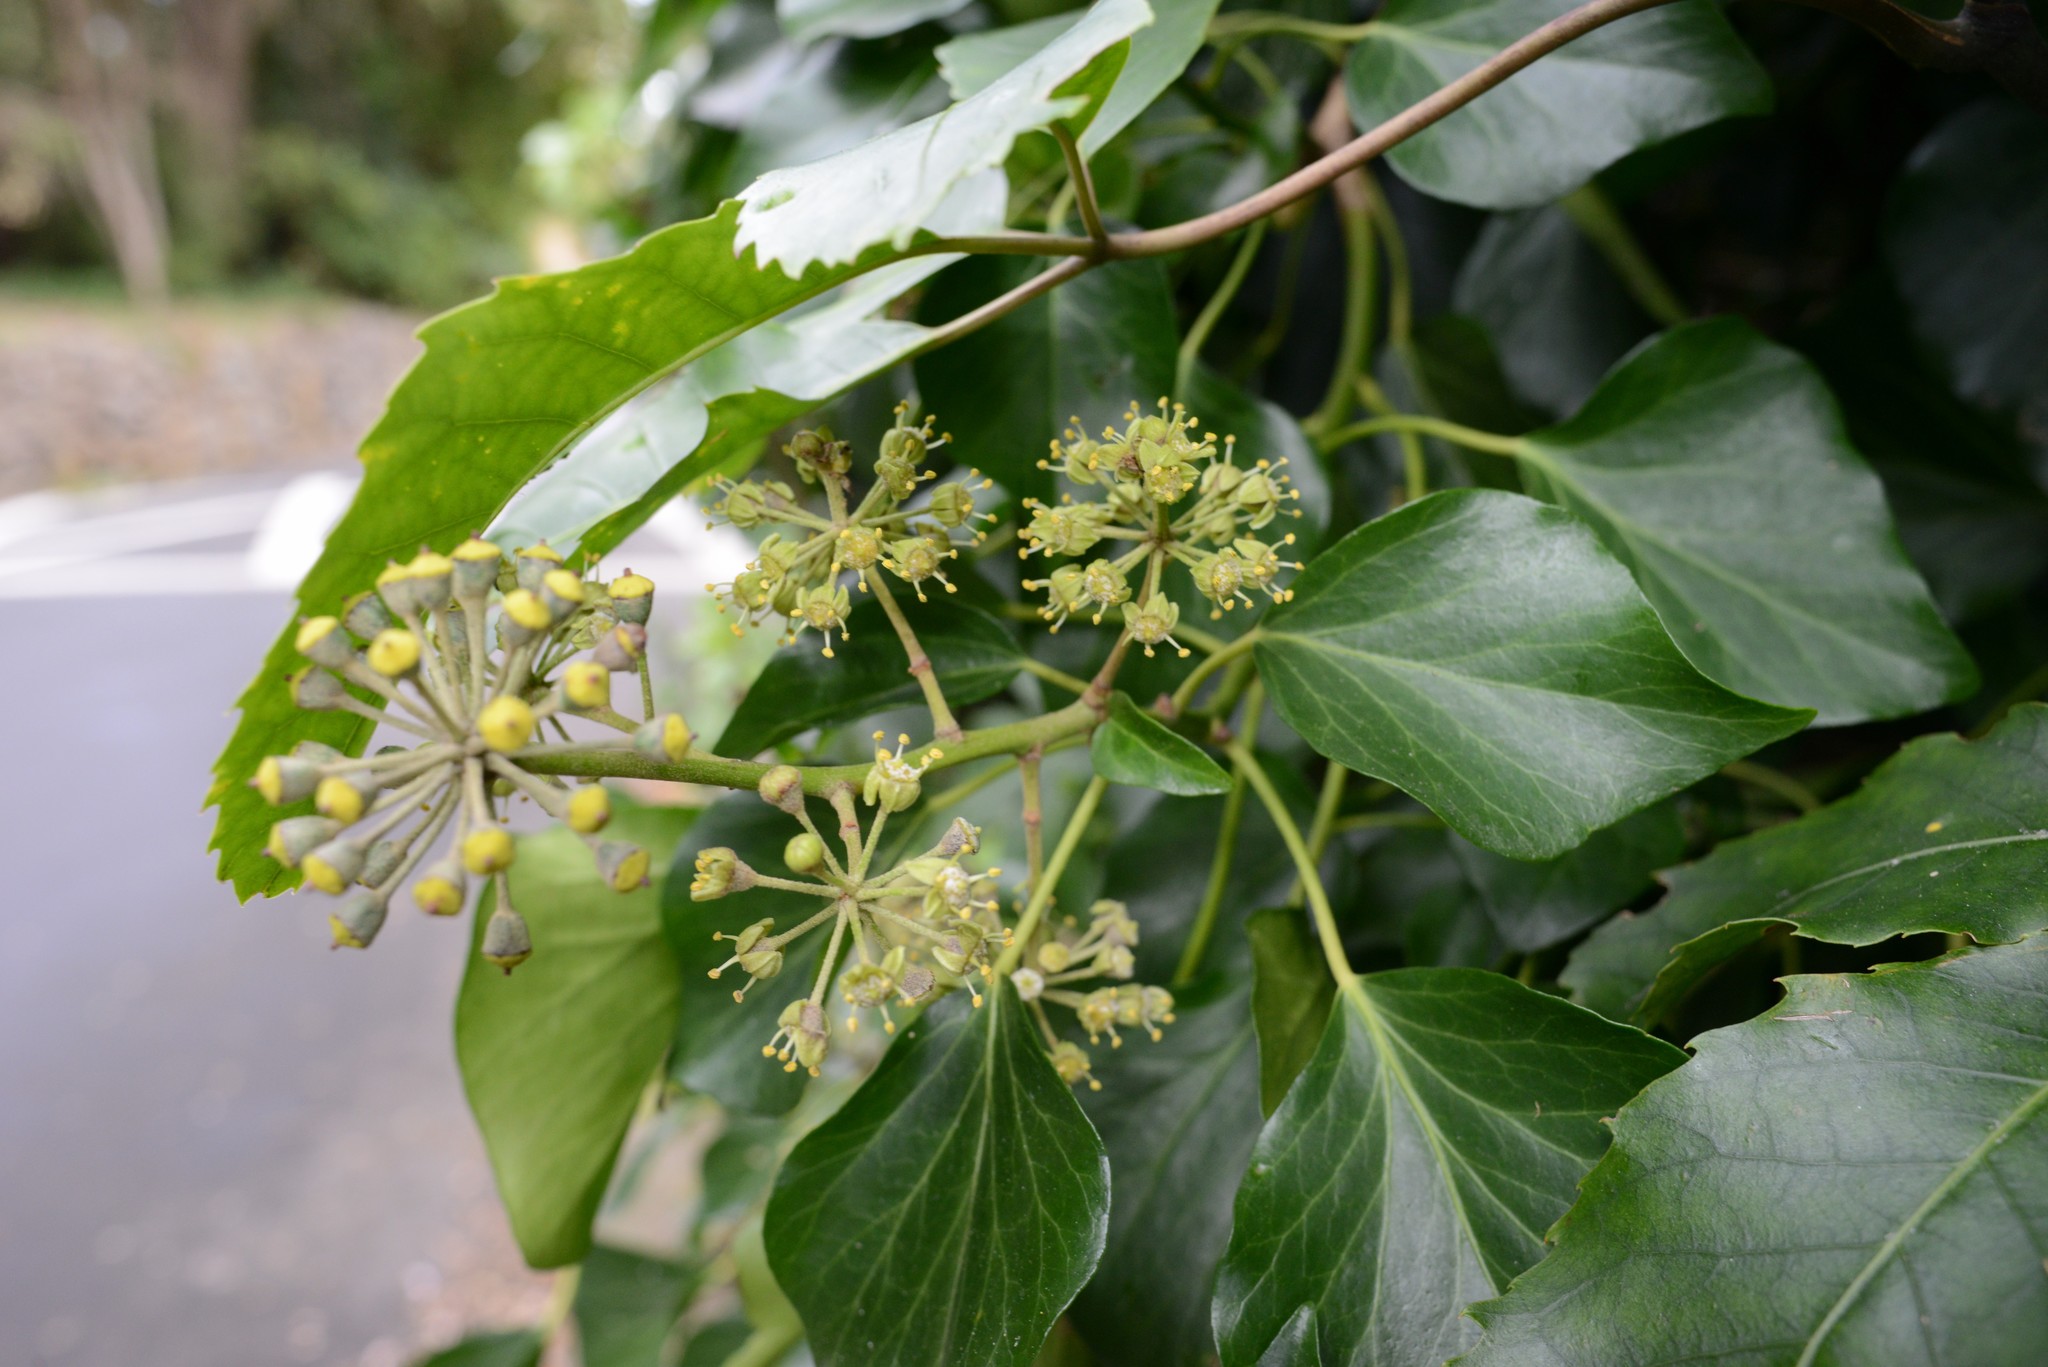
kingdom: Plantae
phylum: Tracheophyta
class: Magnoliopsida
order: Apiales
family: Araliaceae
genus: Hedera
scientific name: Hedera helix
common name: Ivy
